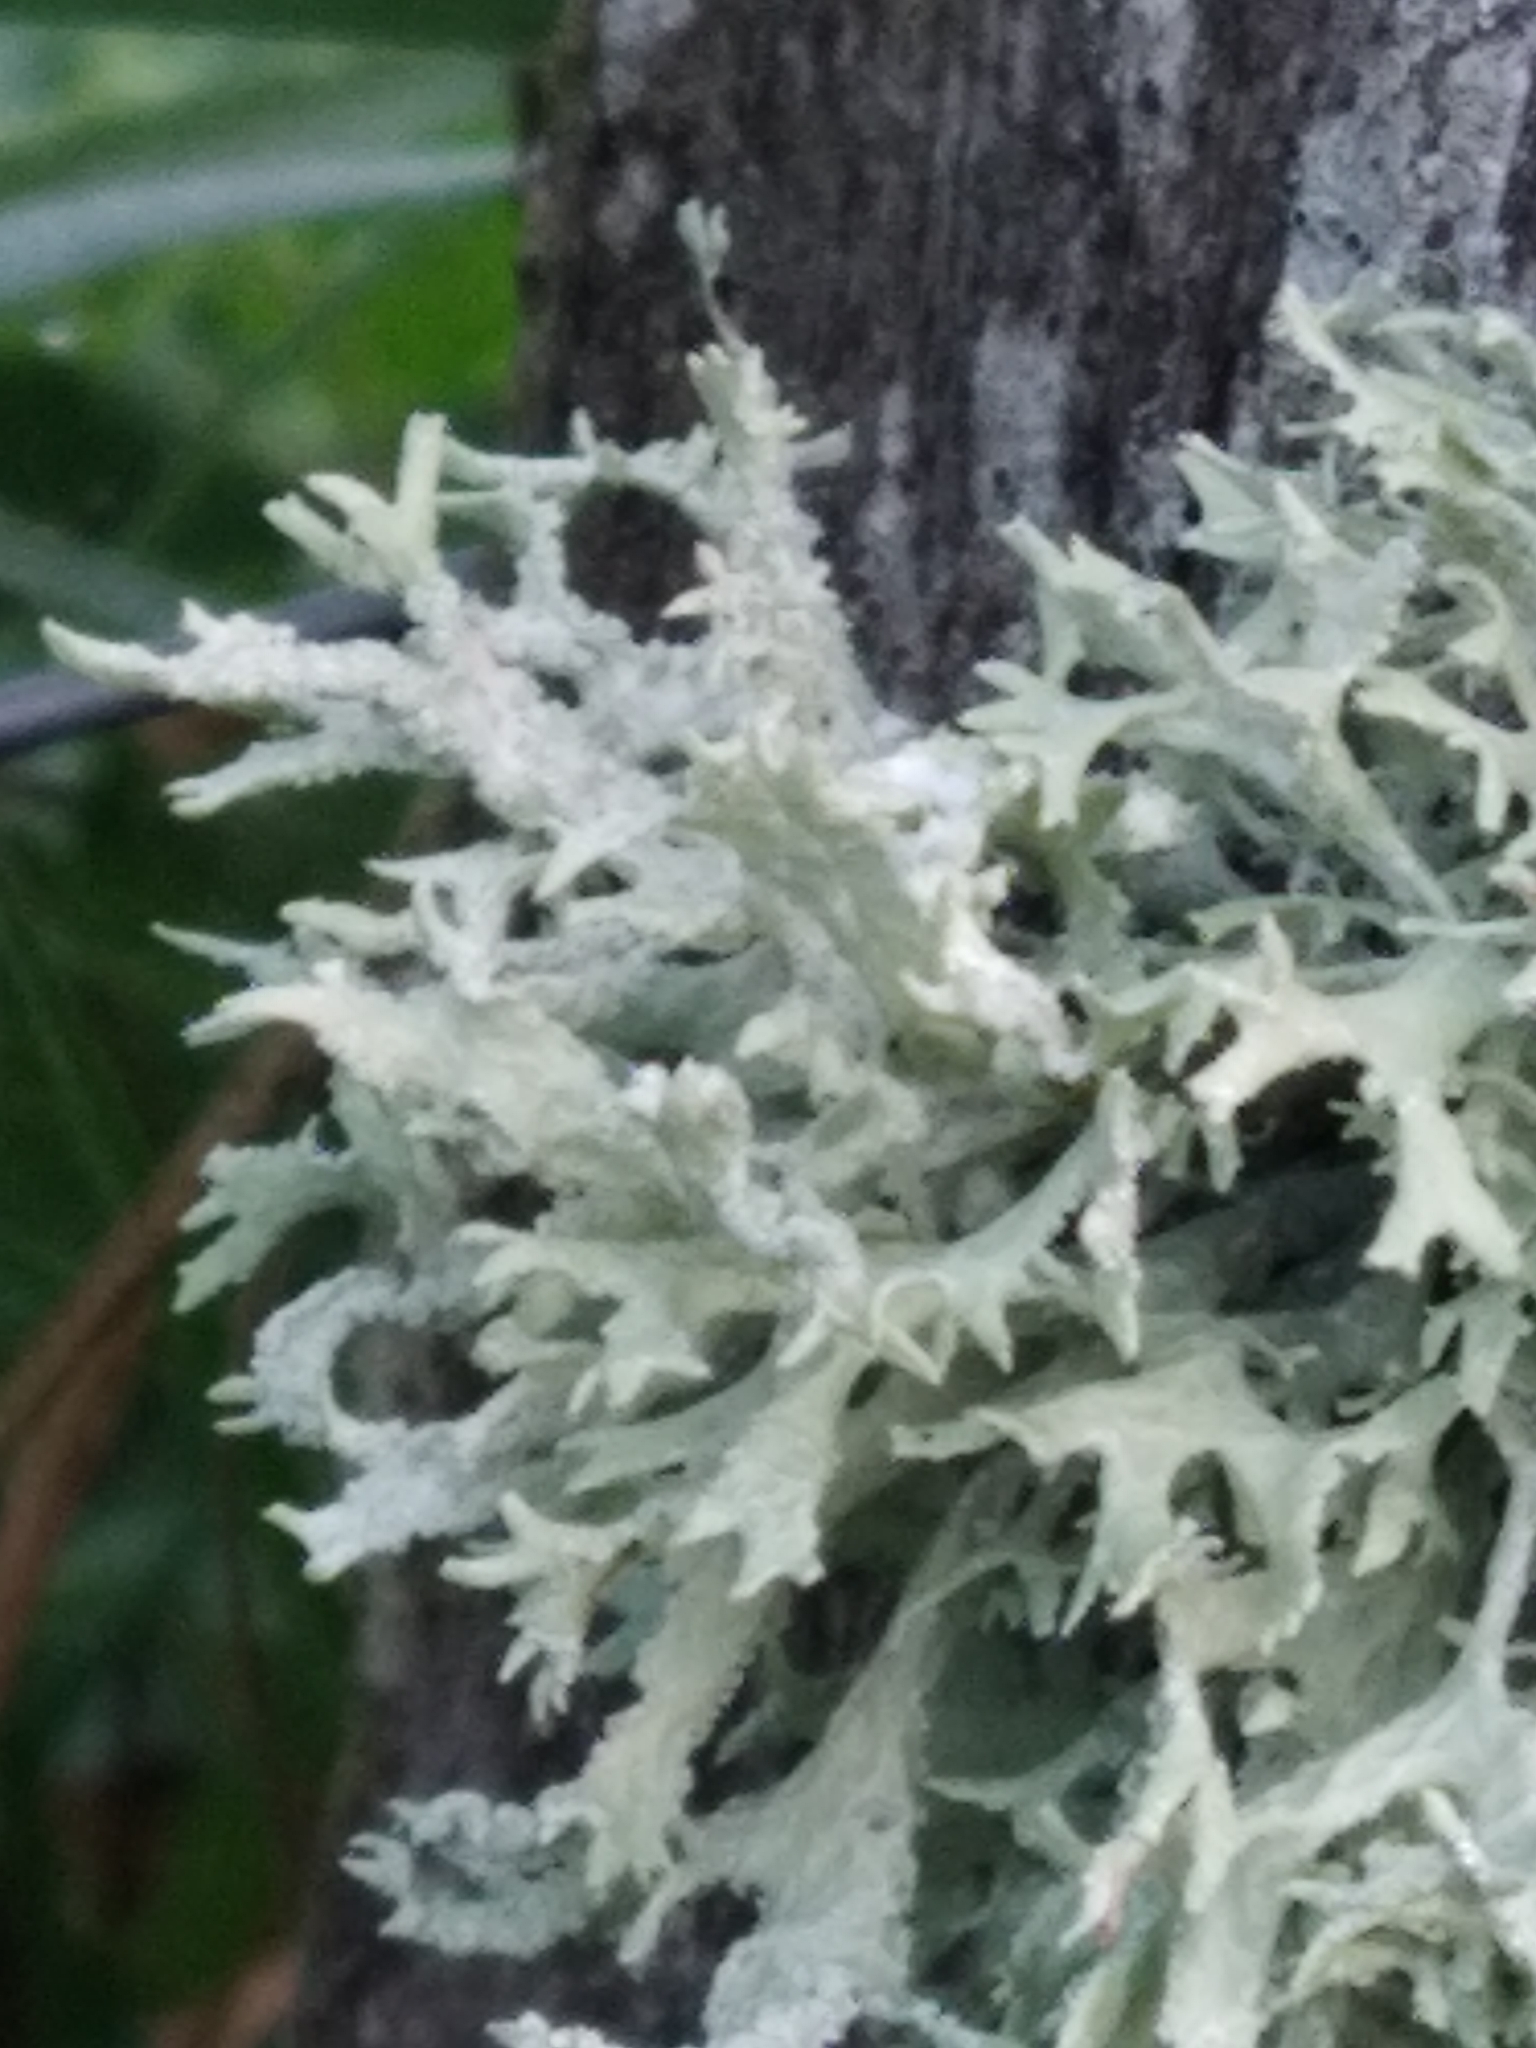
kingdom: Fungi
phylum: Ascomycota
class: Lecanoromycetes
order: Lecanorales
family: Parmeliaceae
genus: Evernia
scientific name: Evernia prunastri
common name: Oak moss
